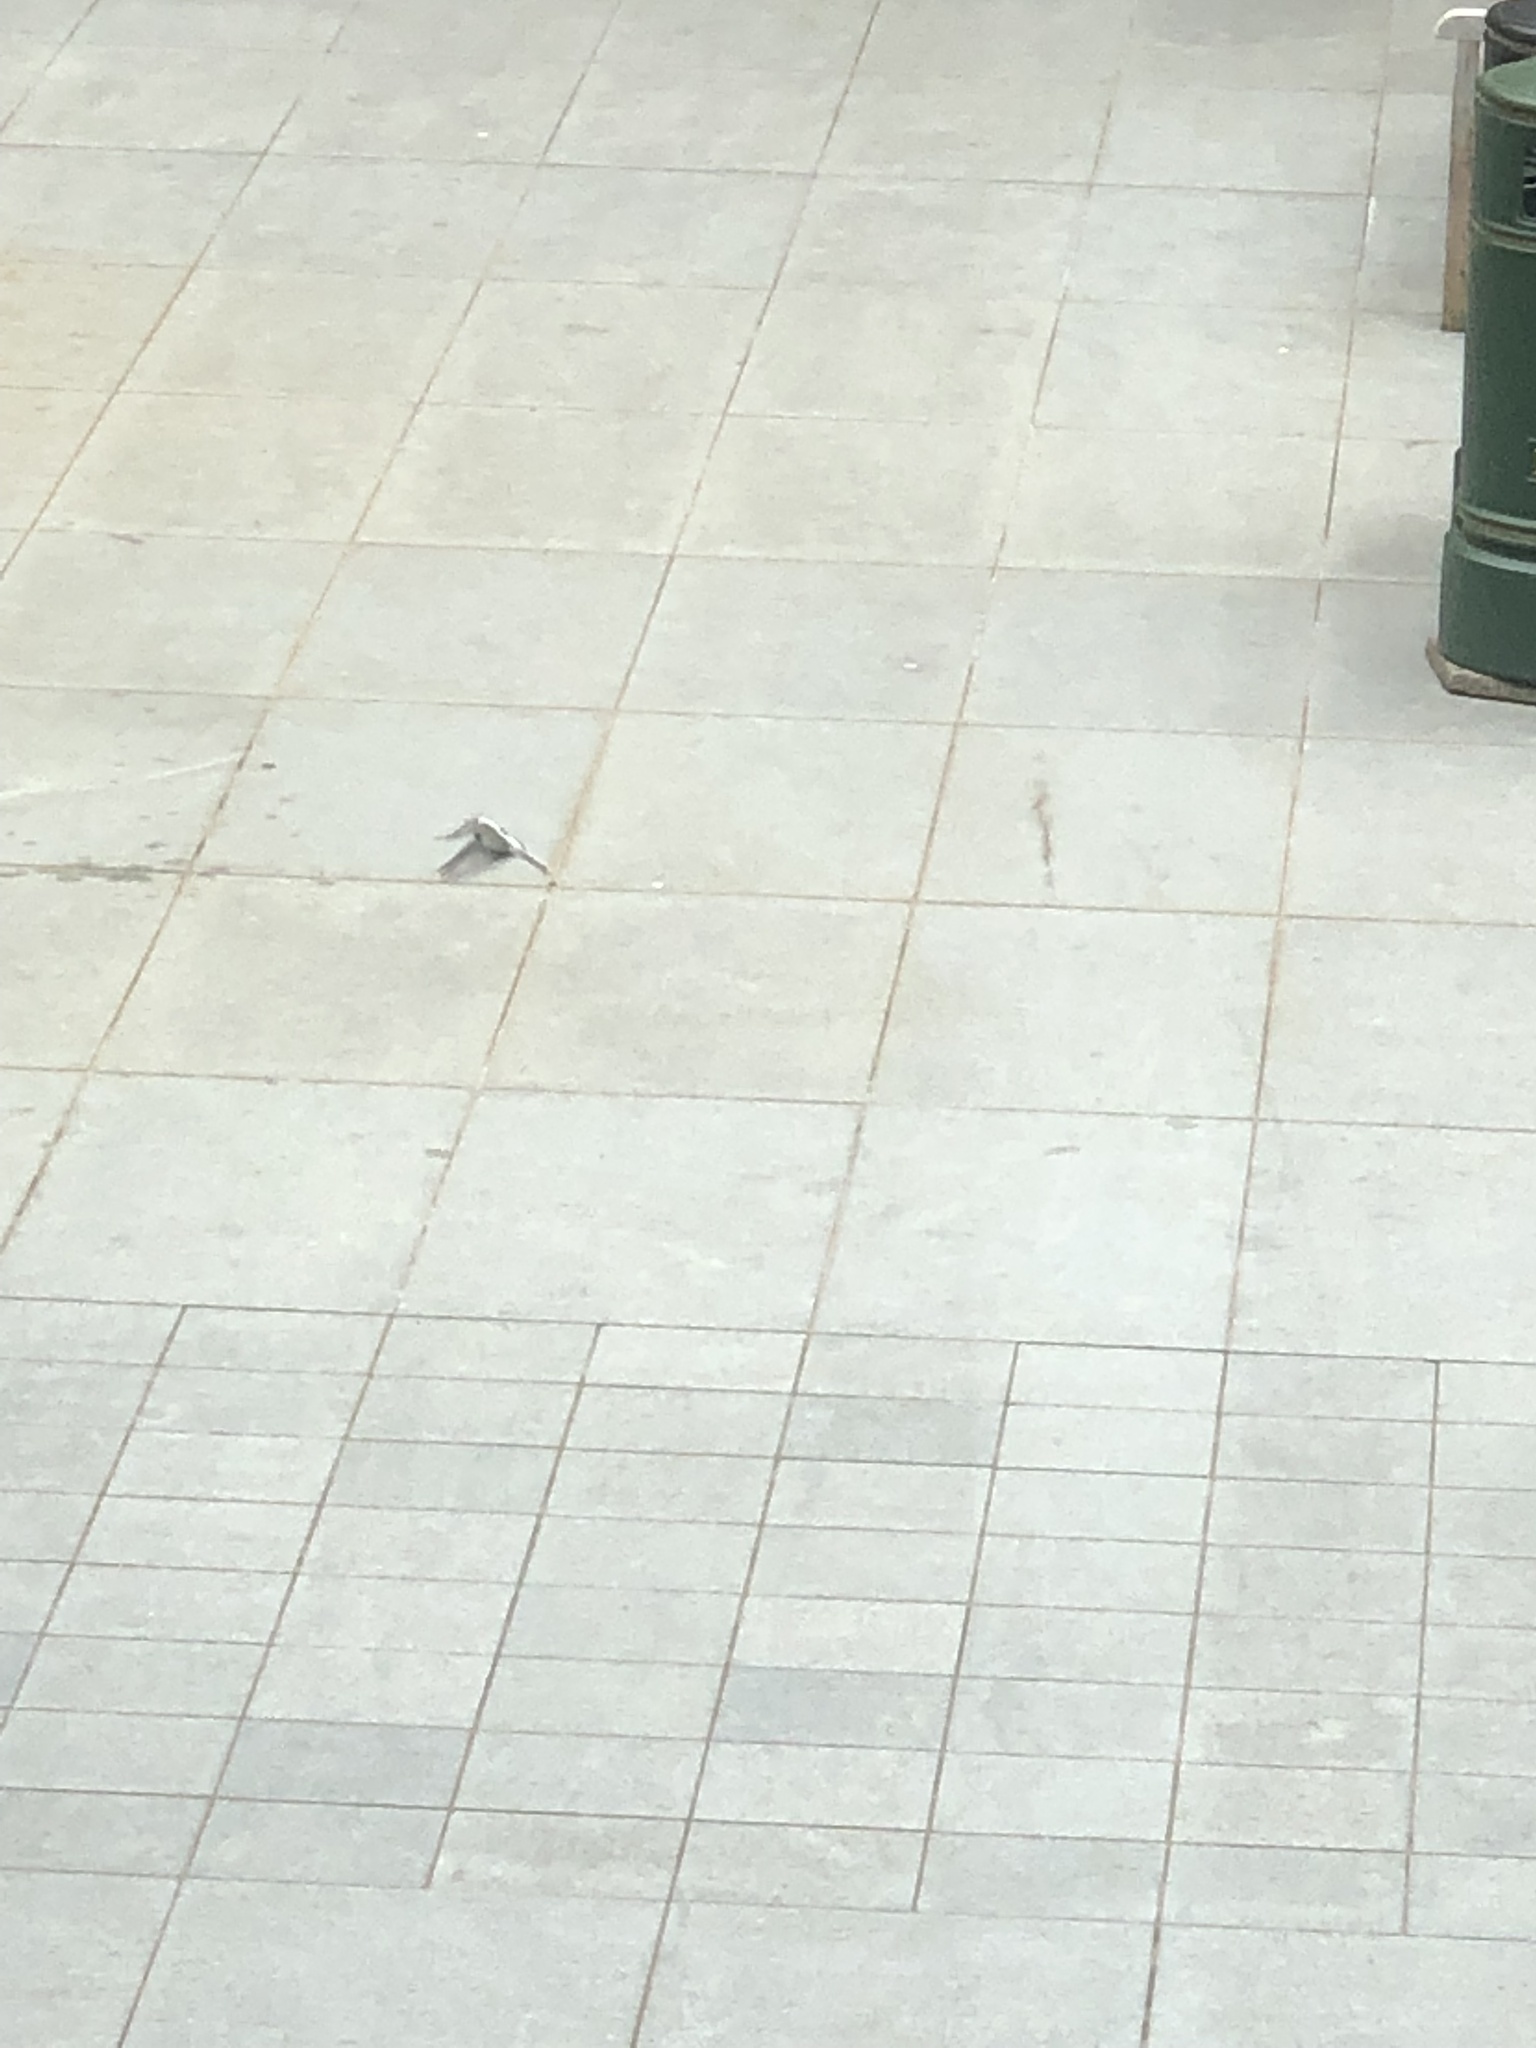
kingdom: Animalia
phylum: Chordata
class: Aves
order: Passeriformes
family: Motacillidae
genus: Motacilla
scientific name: Motacilla alba
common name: White wagtail
